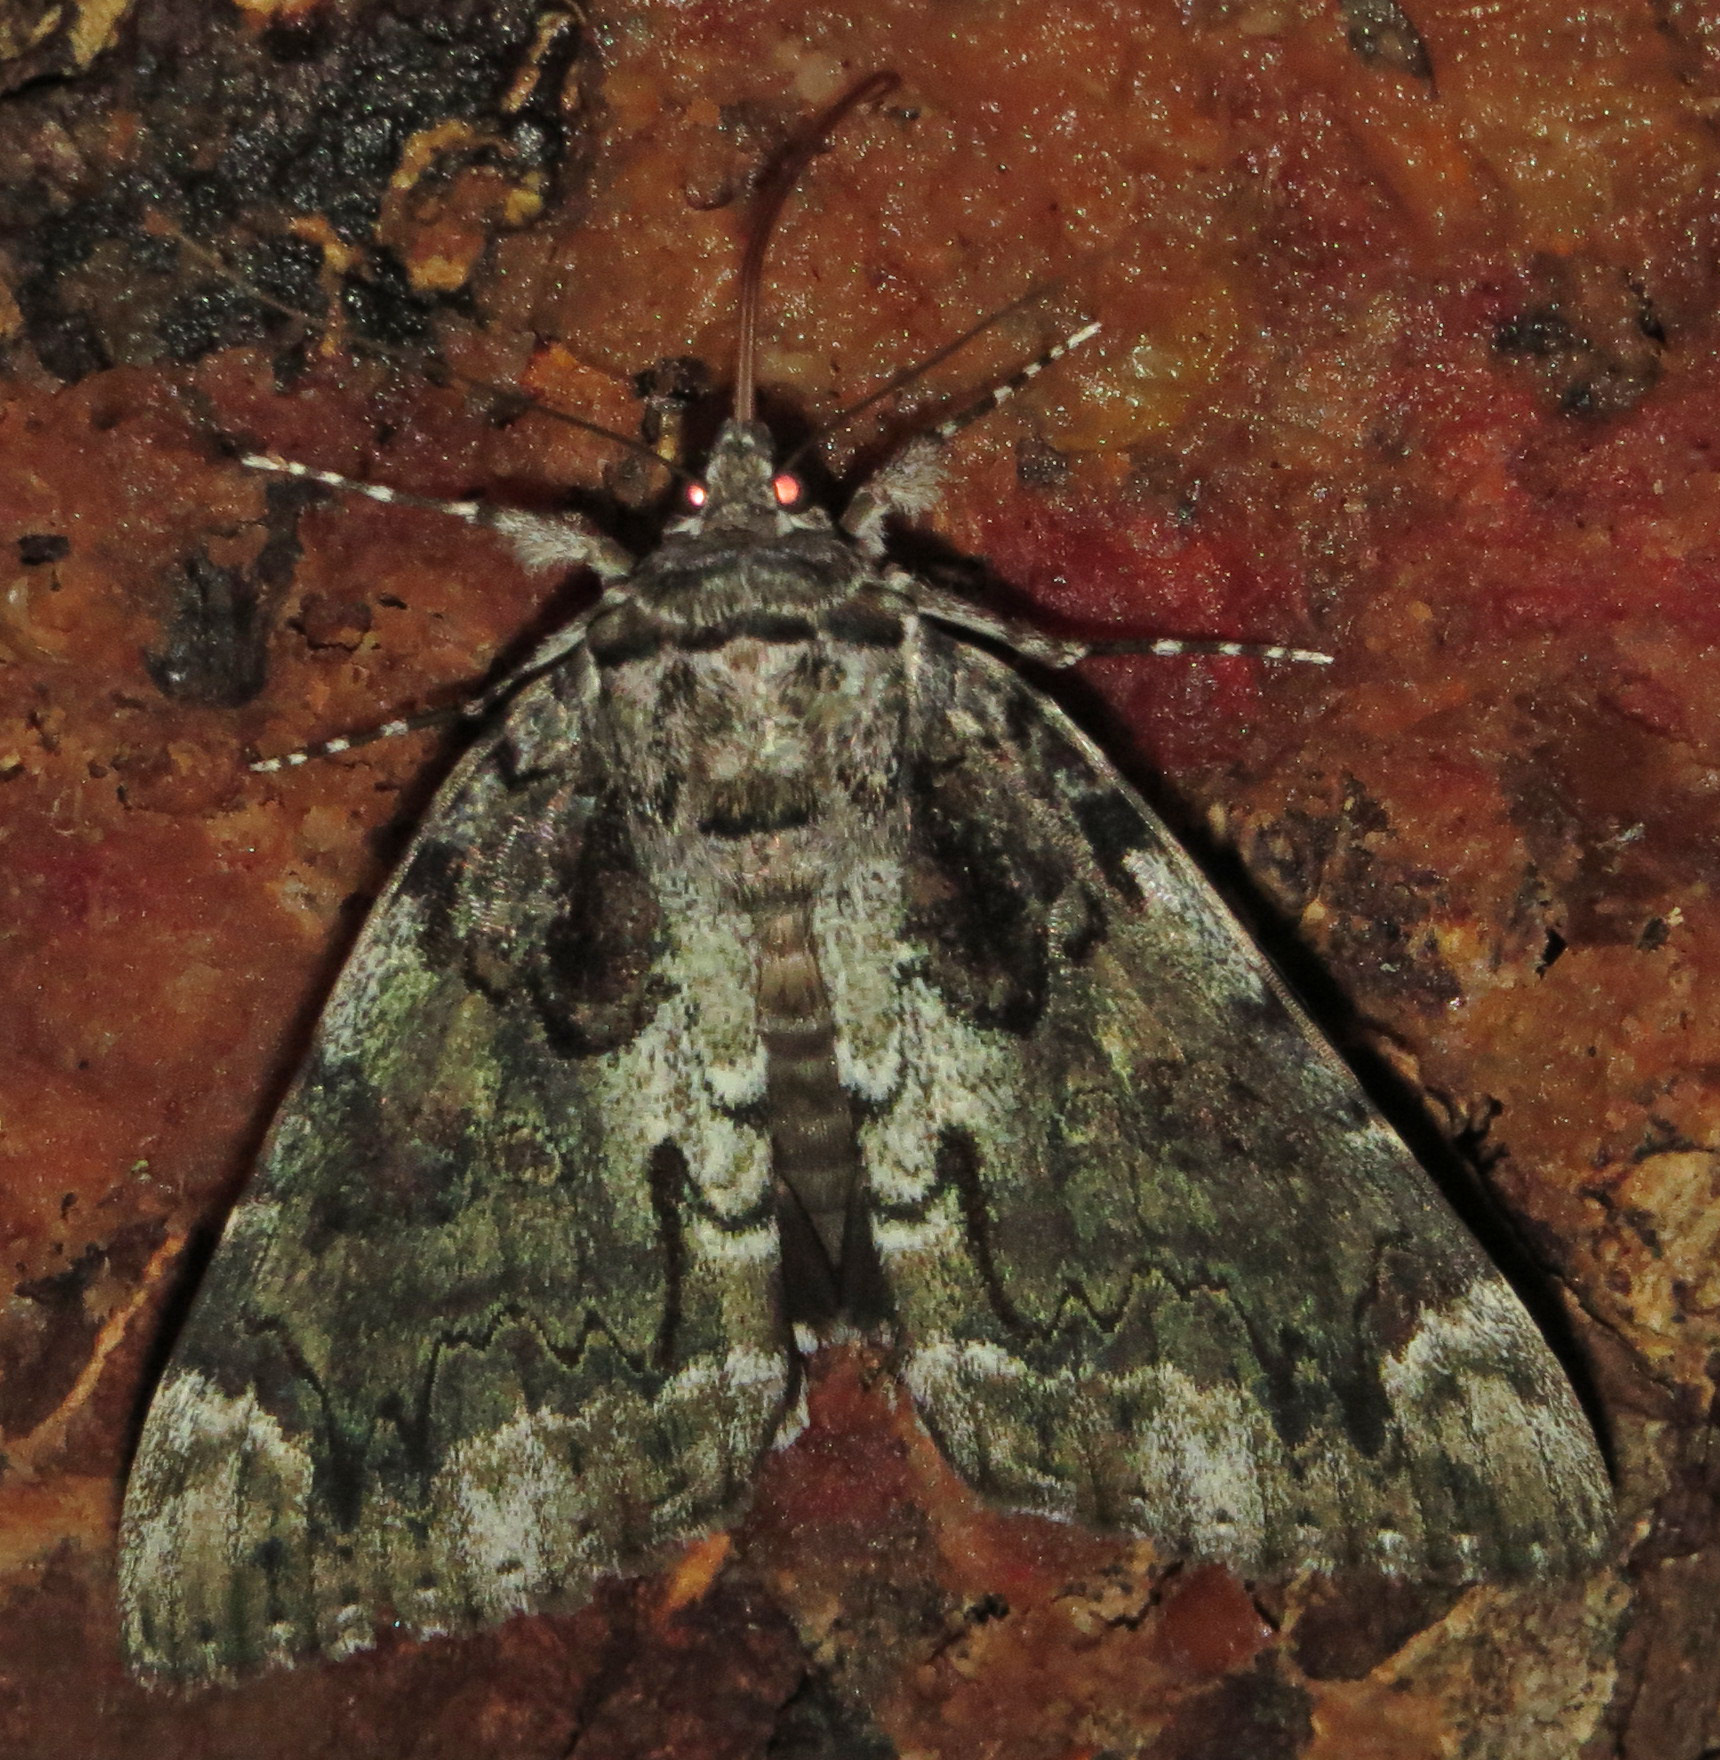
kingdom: Animalia
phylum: Arthropoda
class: Insecta
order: Lepidoptera
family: Erebidae
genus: Catocala
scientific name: Catocala lacrymosa
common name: Tearful underwing
